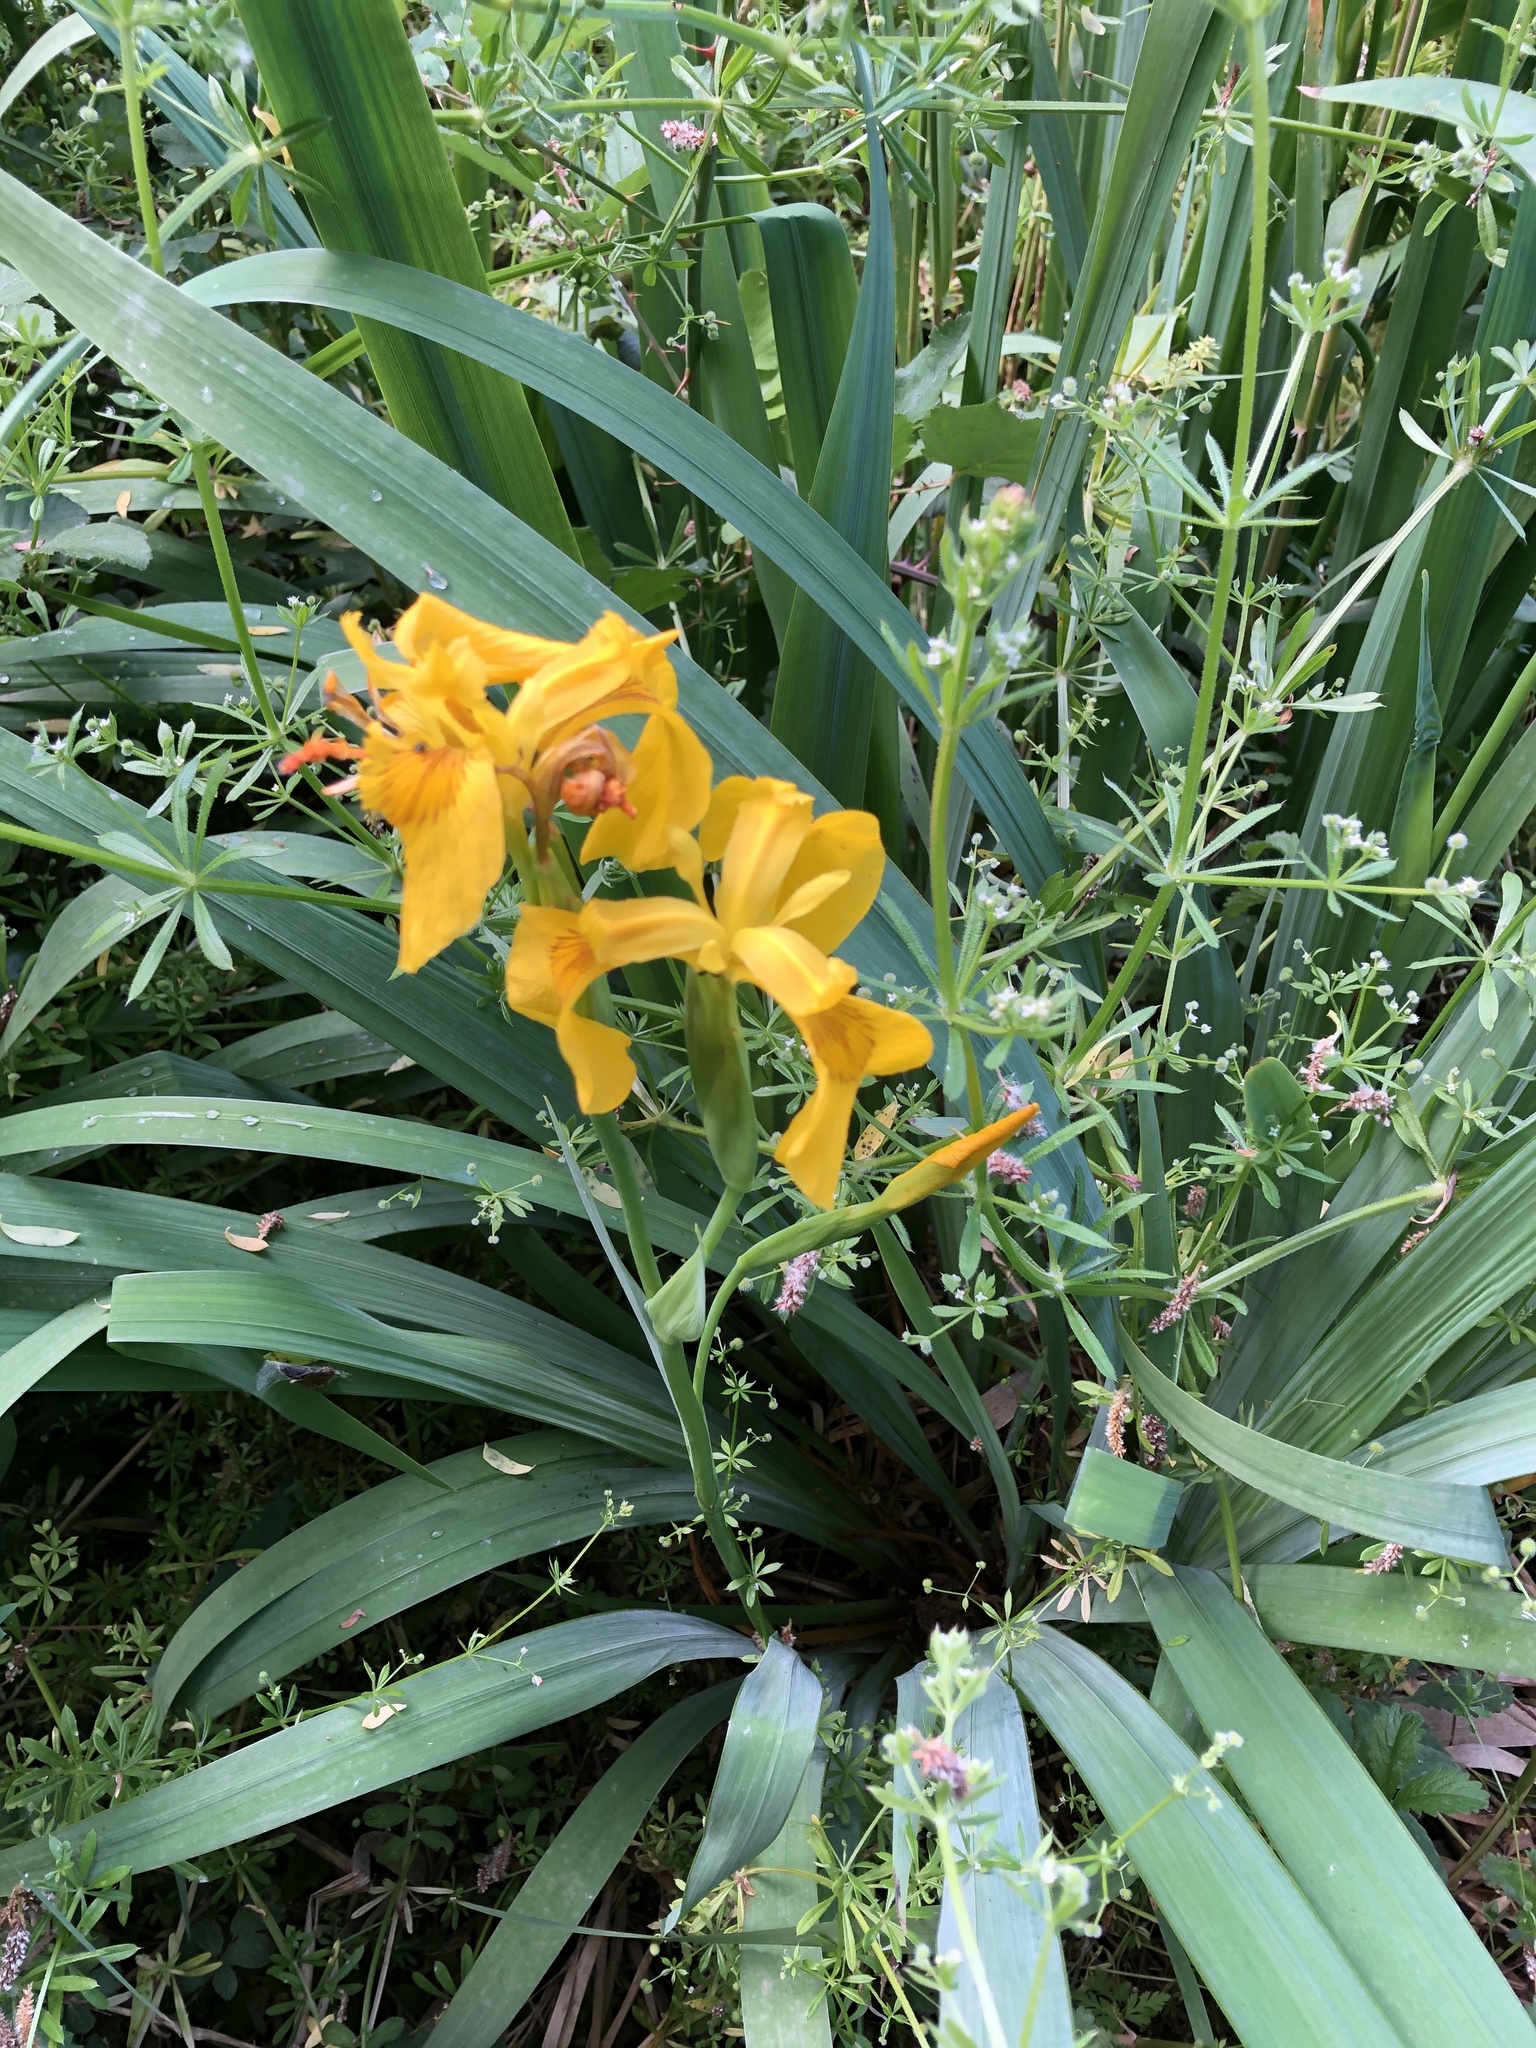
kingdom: Plantae
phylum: Tracheophyta
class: Liliopsida
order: Asparagales
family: Iridaceae
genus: Iris
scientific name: Iris pseudacorus
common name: Yellow flag
